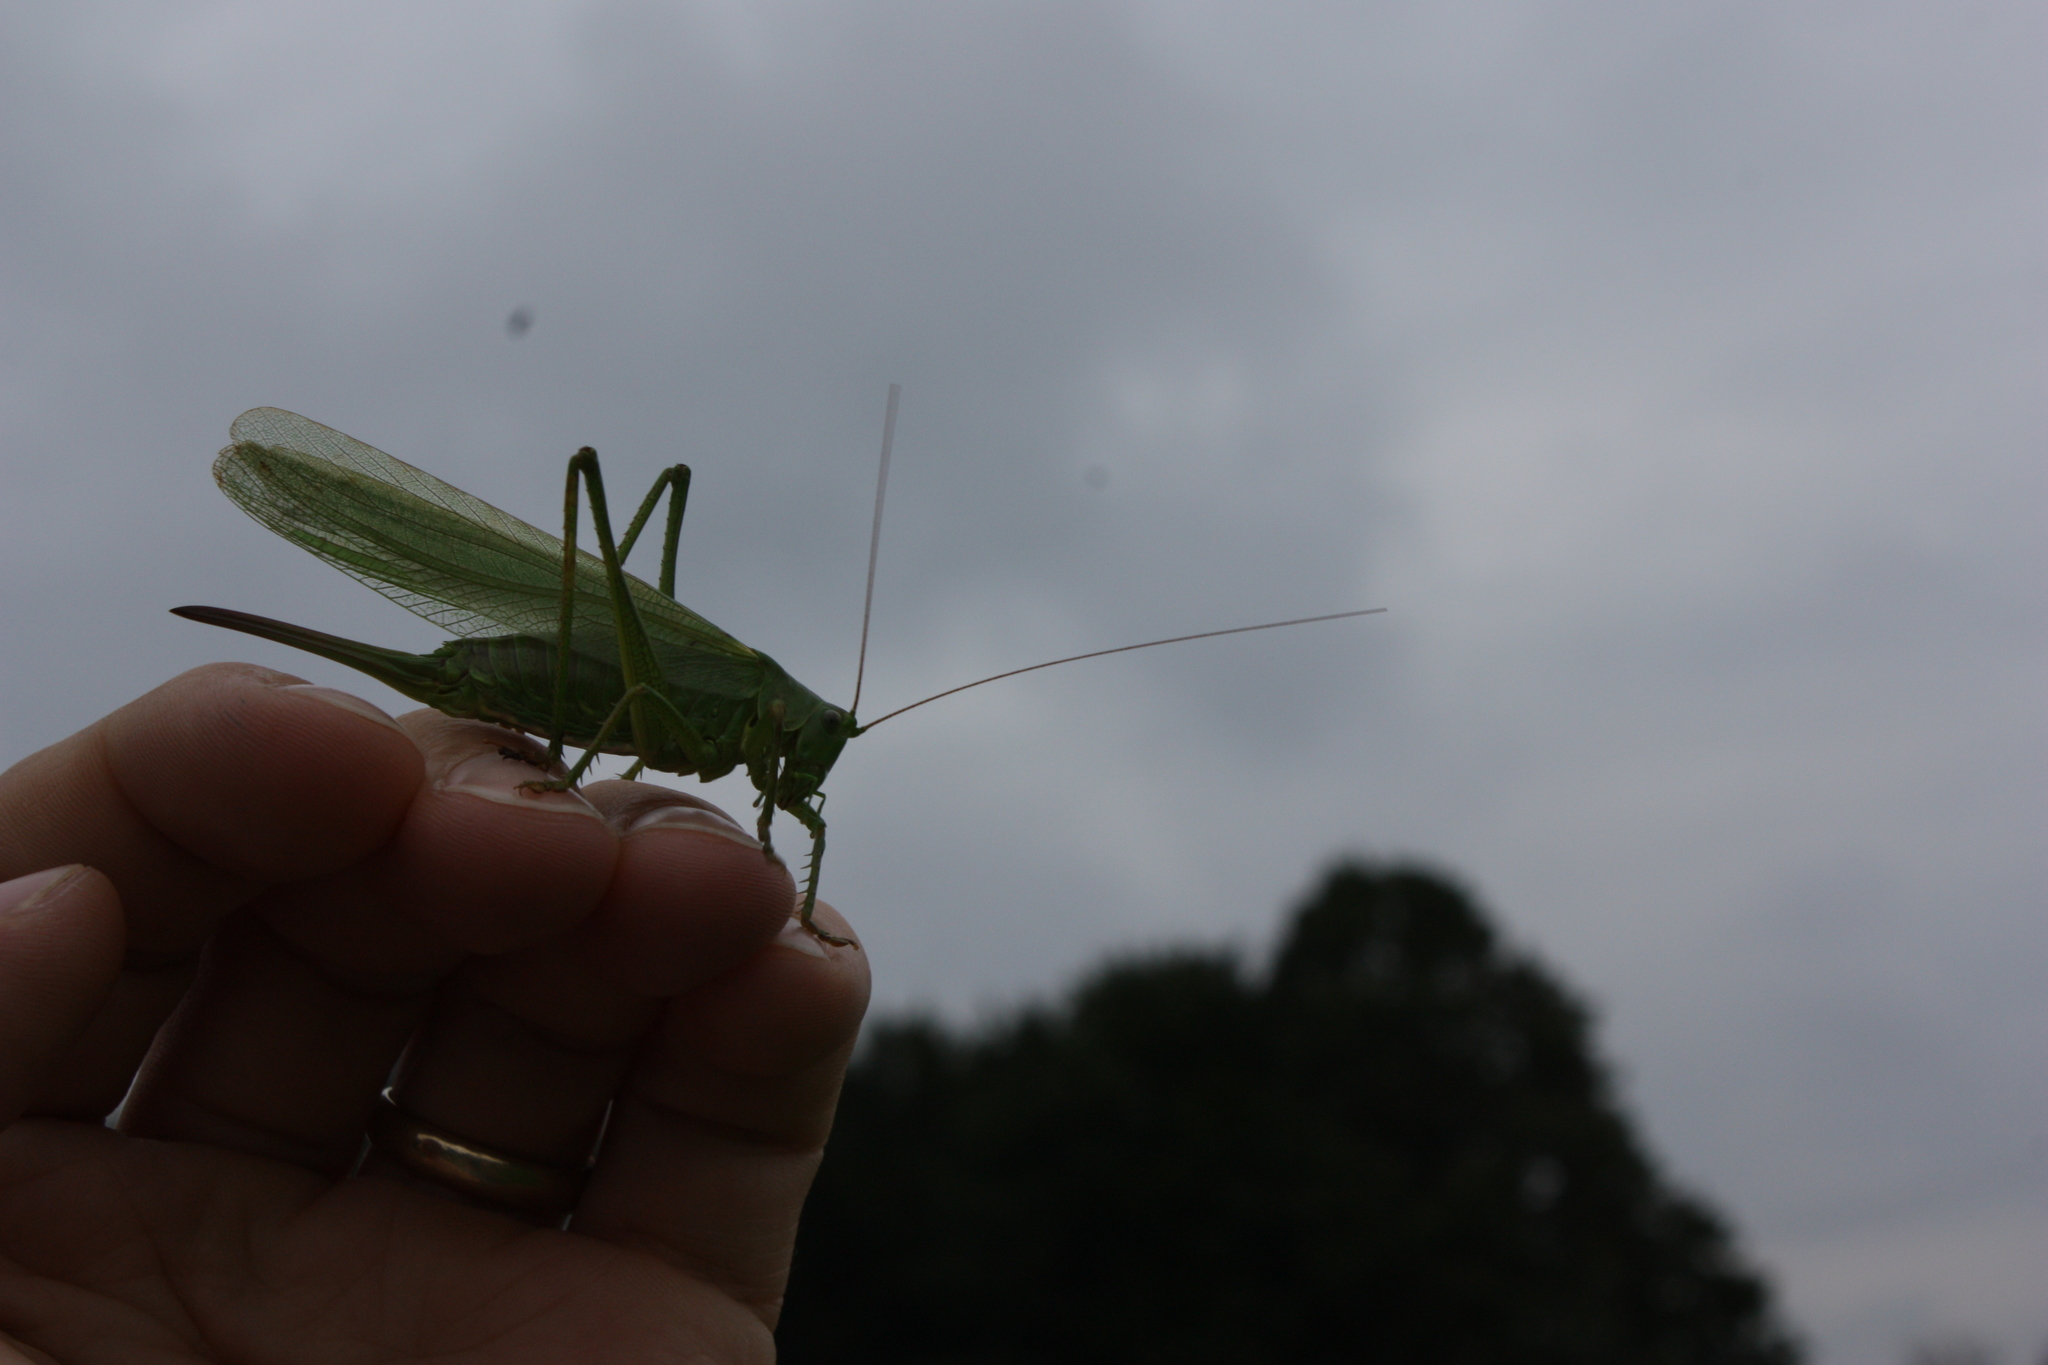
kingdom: Animalia
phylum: Arthropoda
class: Insecta
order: Orthoptera
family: Tettigoniidae
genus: Tettigonia
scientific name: Tettigonia viridissima
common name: Great green bush-cricket
